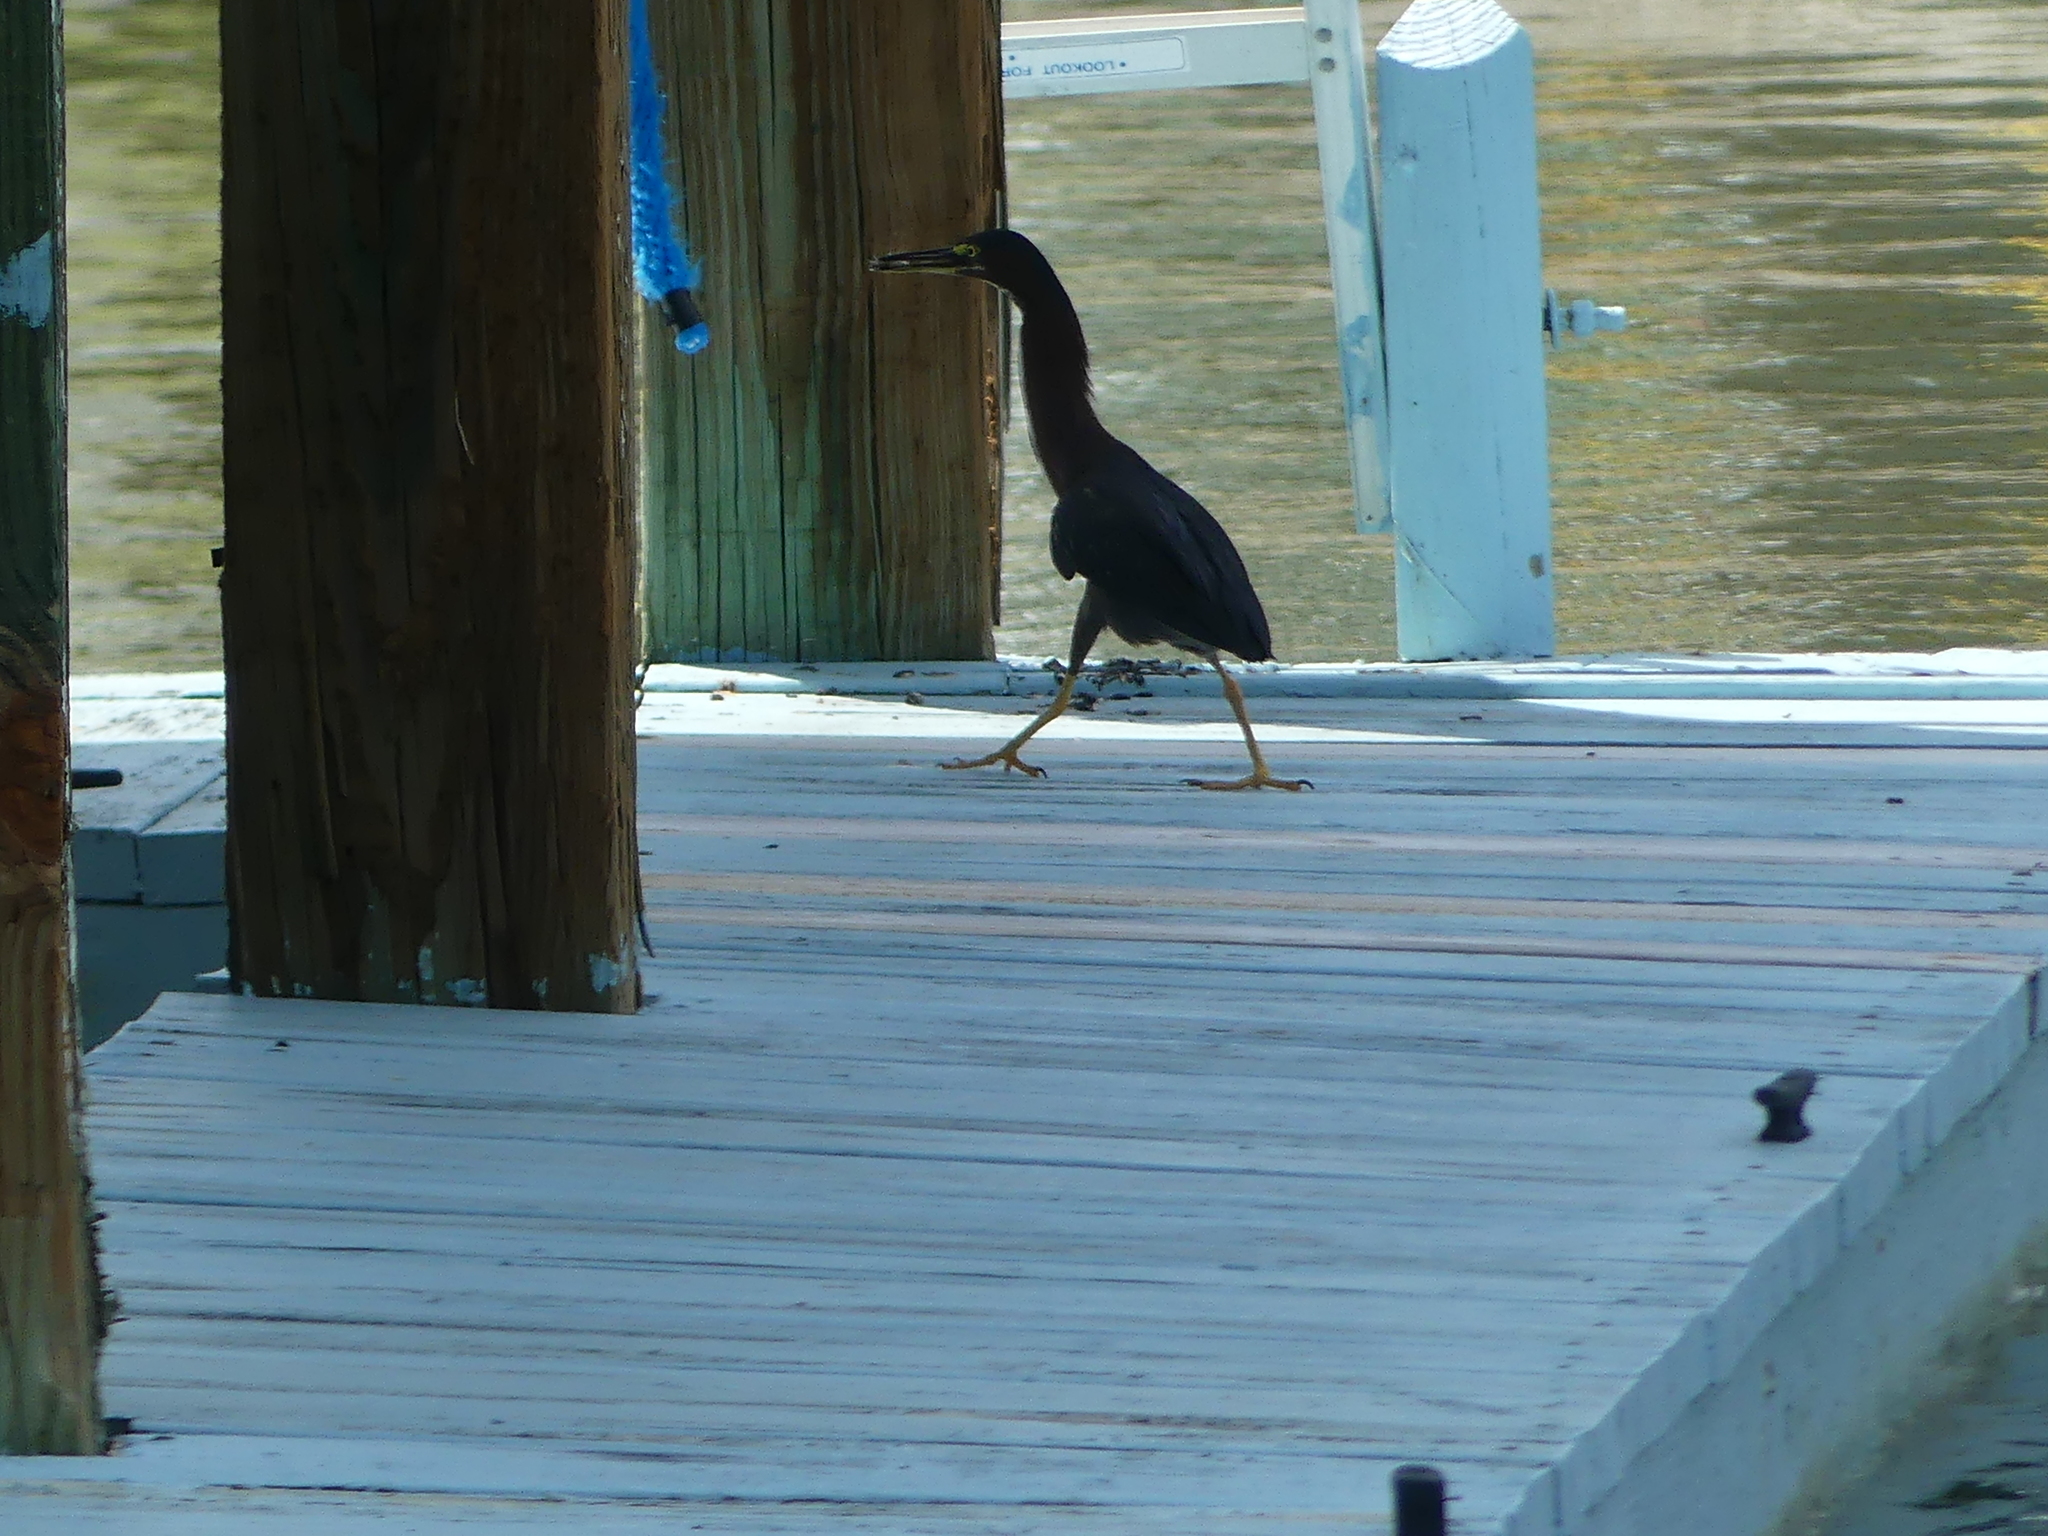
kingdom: Animalia
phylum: Chordata
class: Aves
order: Pelecaniformes
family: Ardeidae
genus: Butorides
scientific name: Butorides virescens
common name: Green heron
